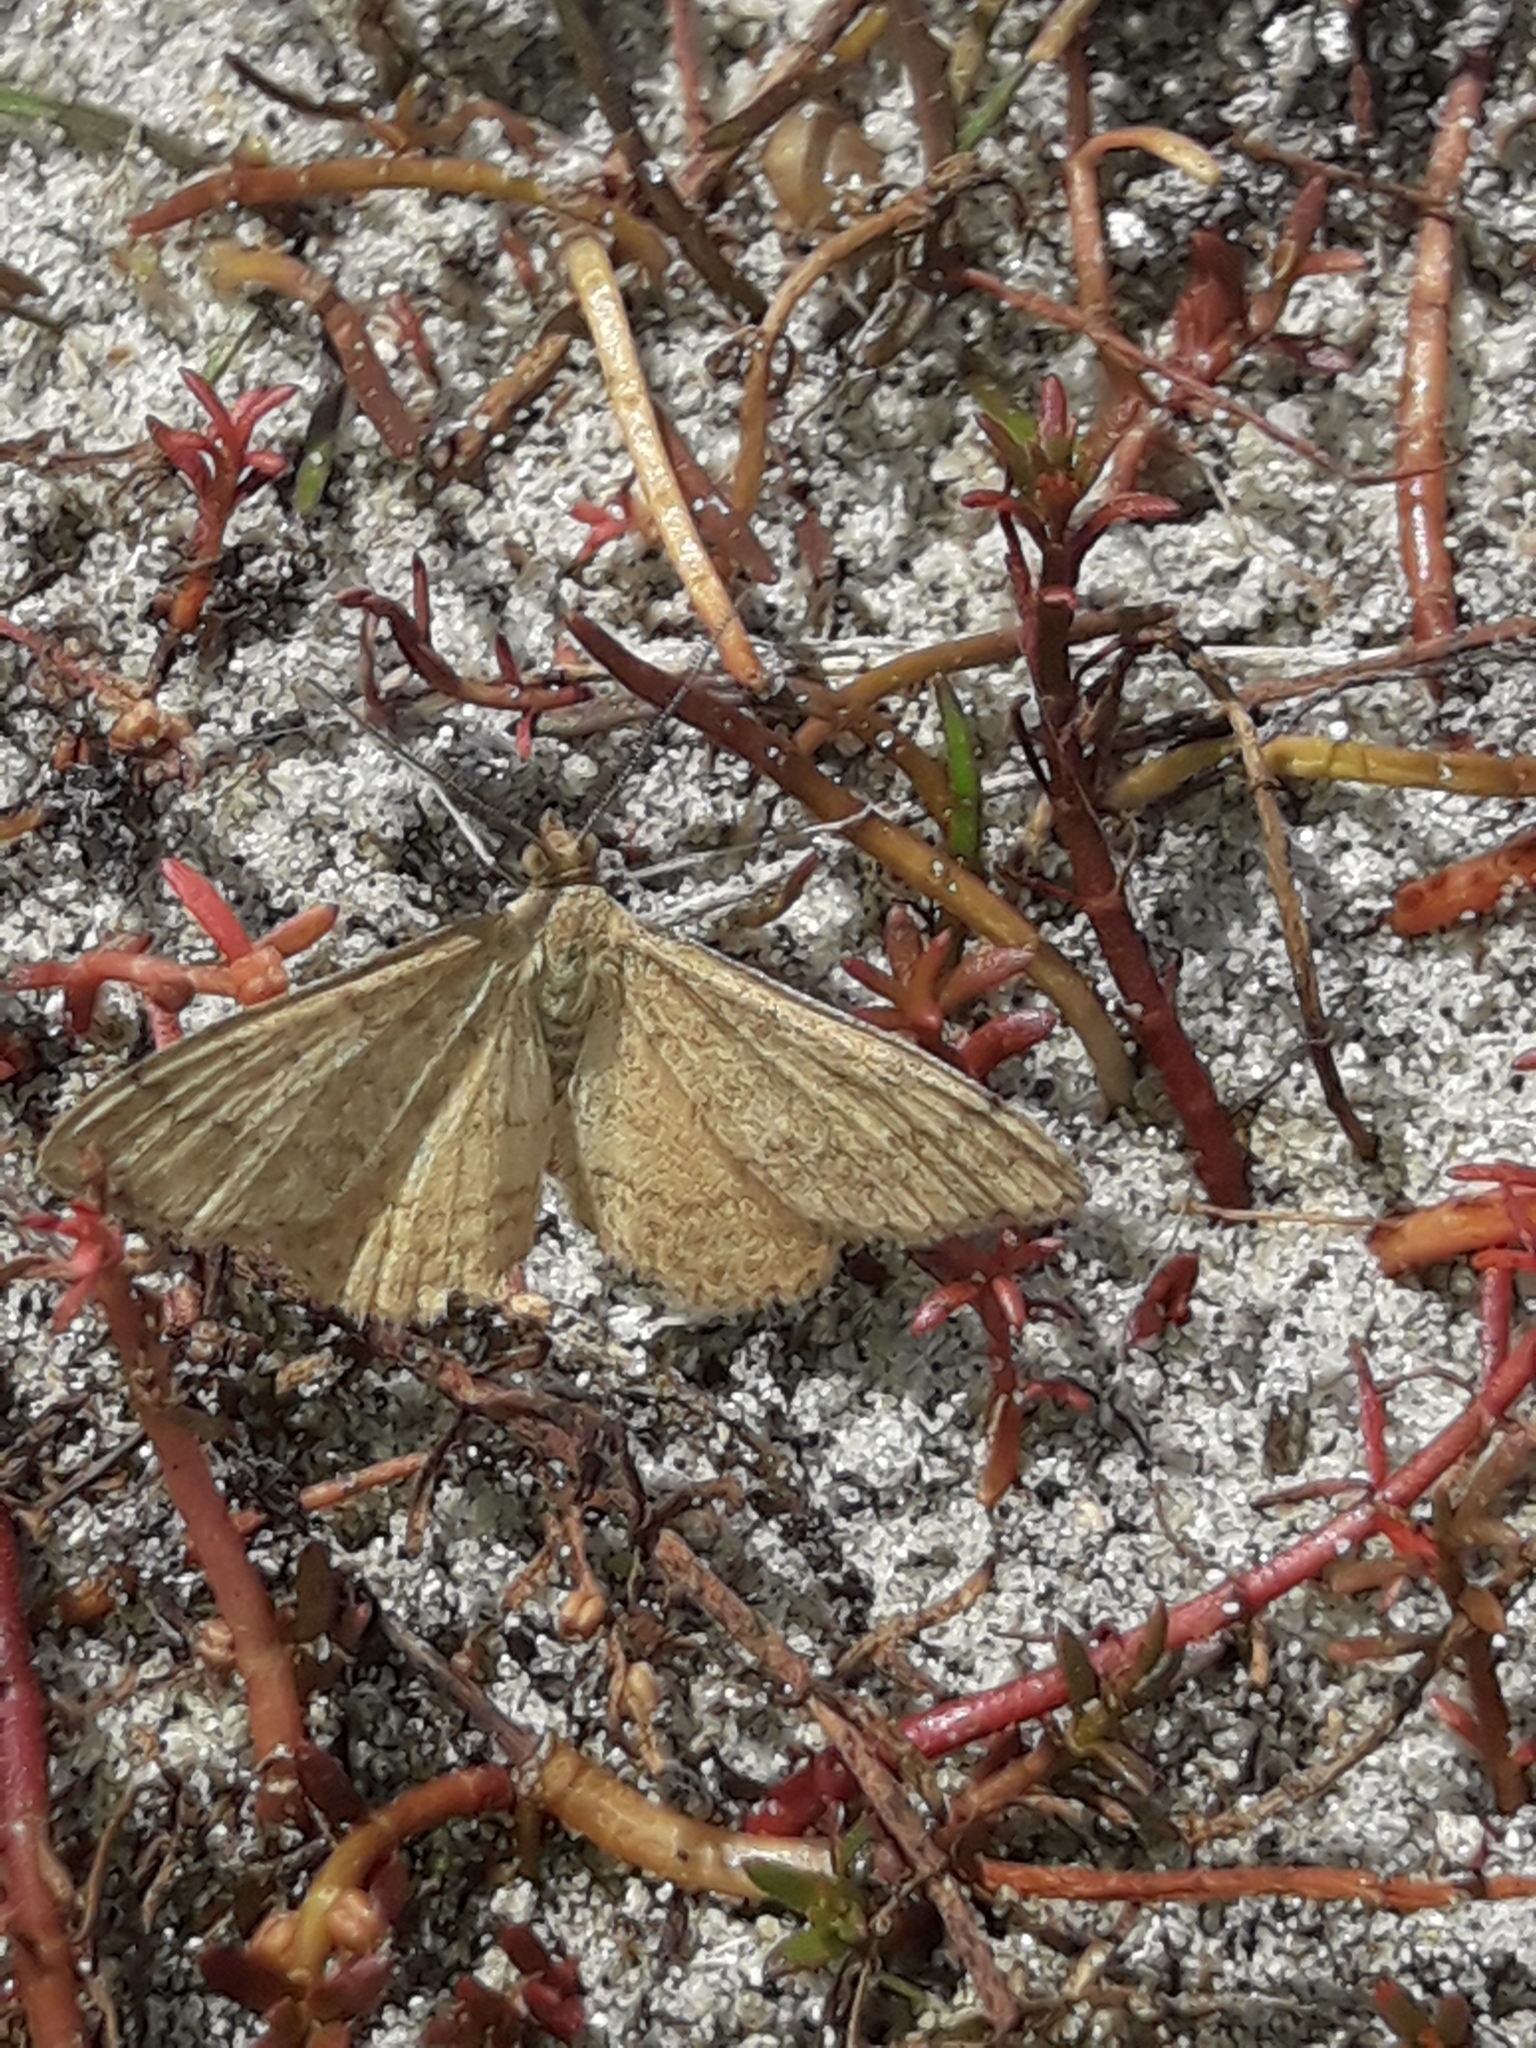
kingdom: Animalia
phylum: Arthropoda
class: Insecta
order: Lepidoptera
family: Geometridae
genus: Scopula
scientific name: Scopula rubraria
